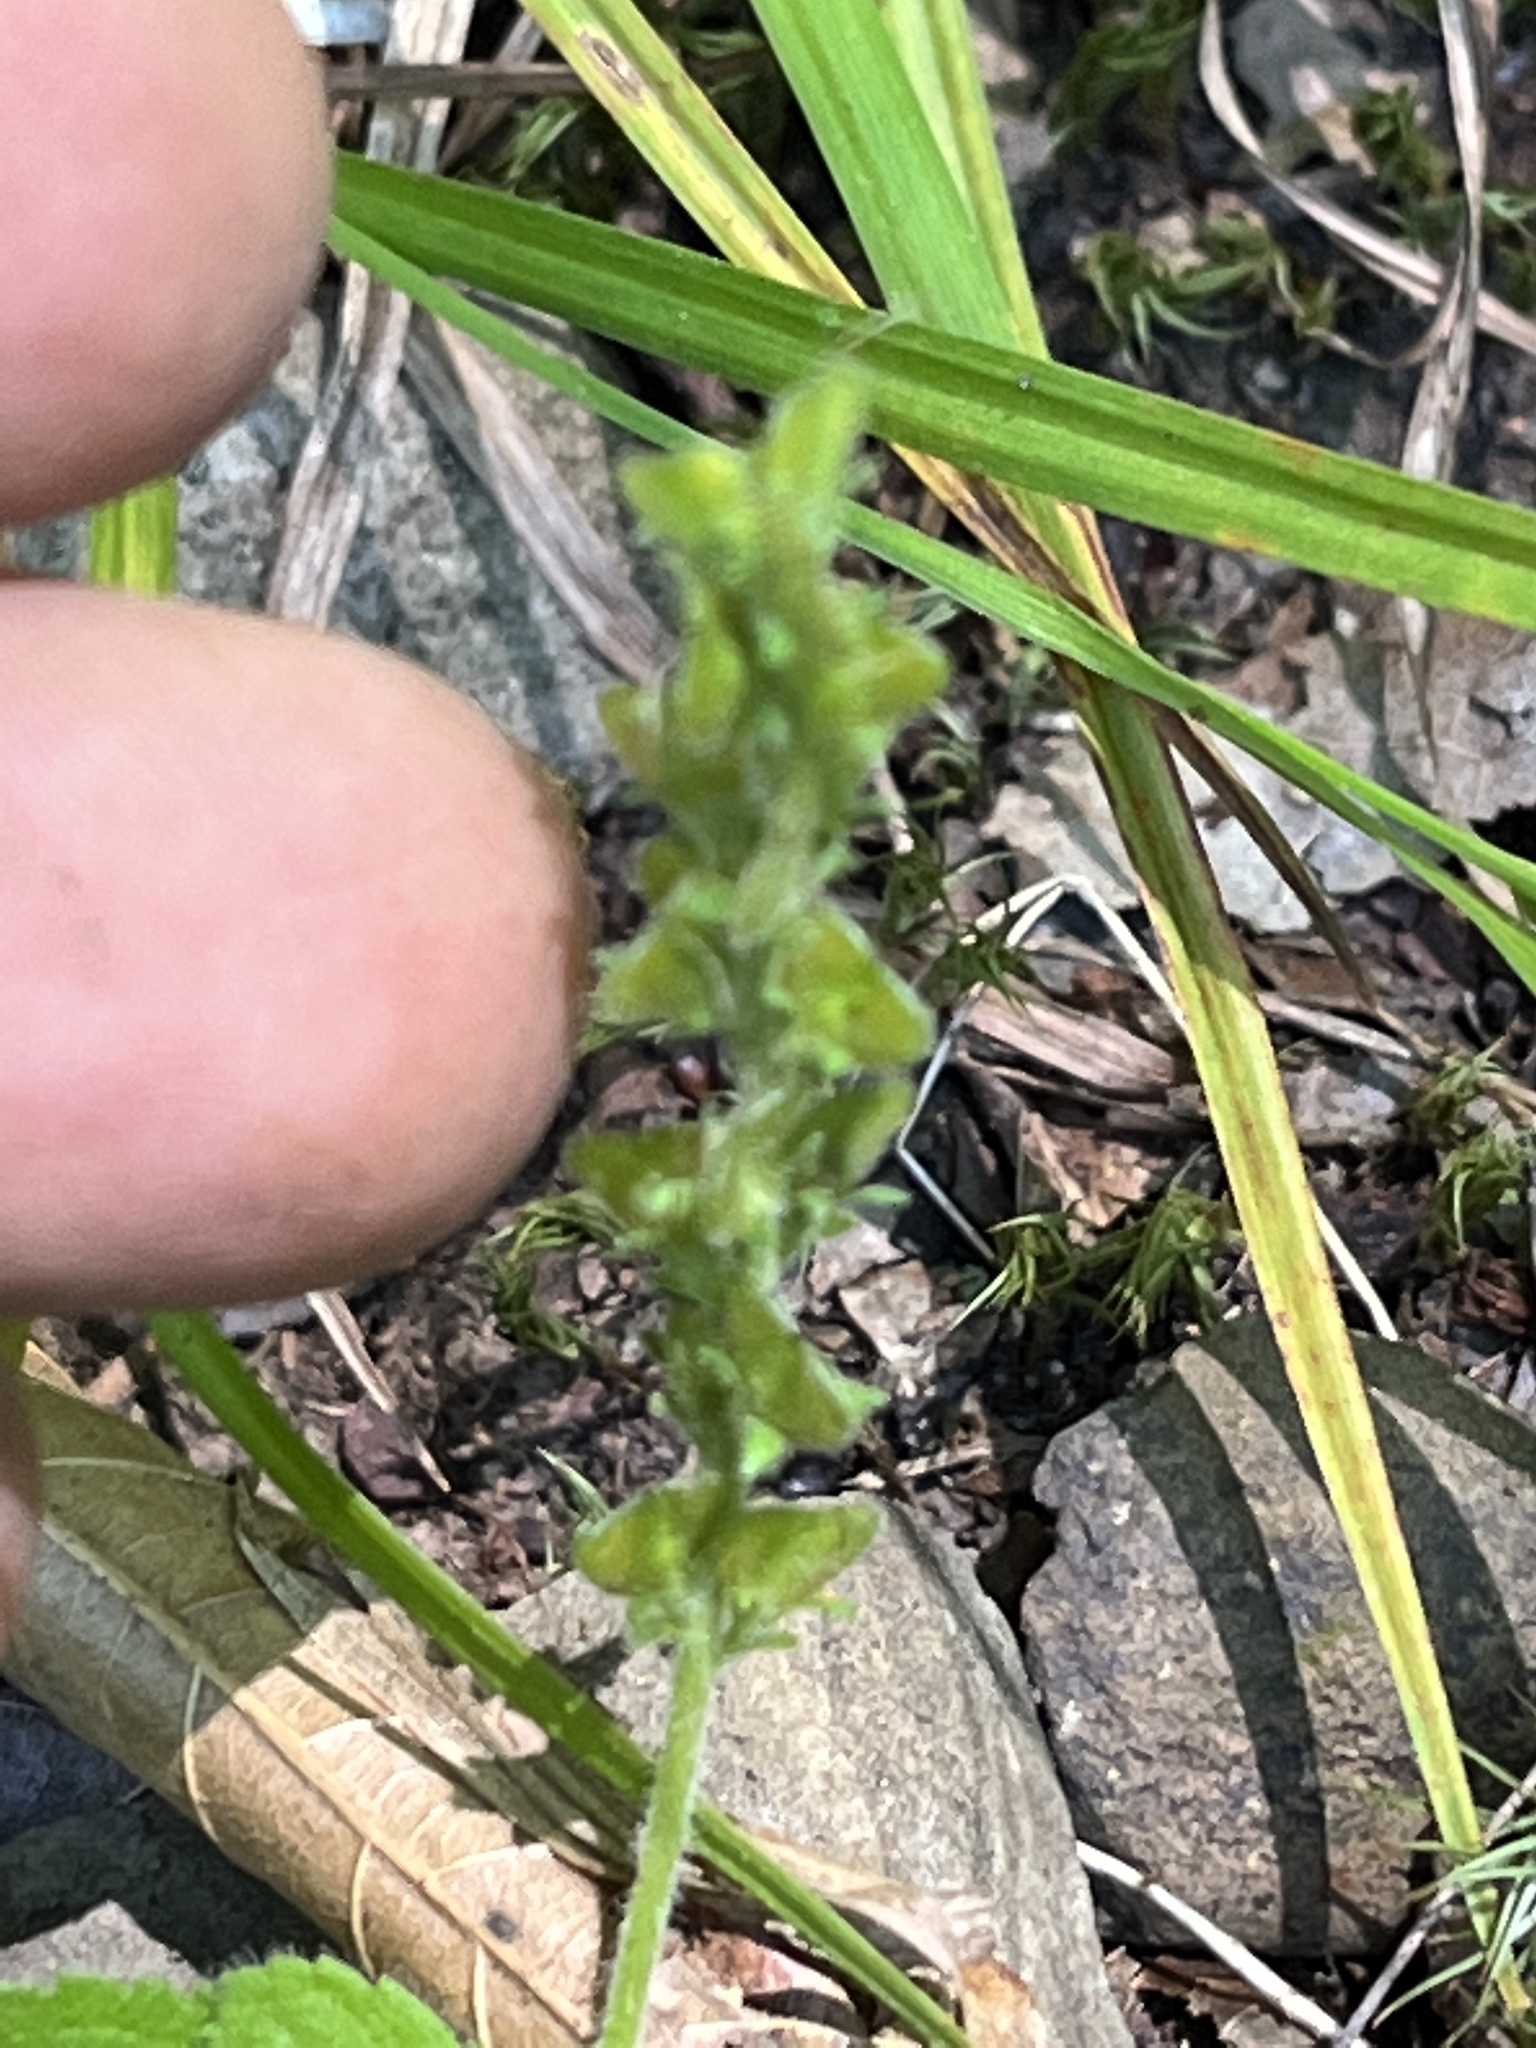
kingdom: Plantae
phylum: Tracheophyta
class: Magnoliopsida
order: Lamiales
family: Plantaginaceae
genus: Veronica
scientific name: Veronica officinalis
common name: Common speedwell
